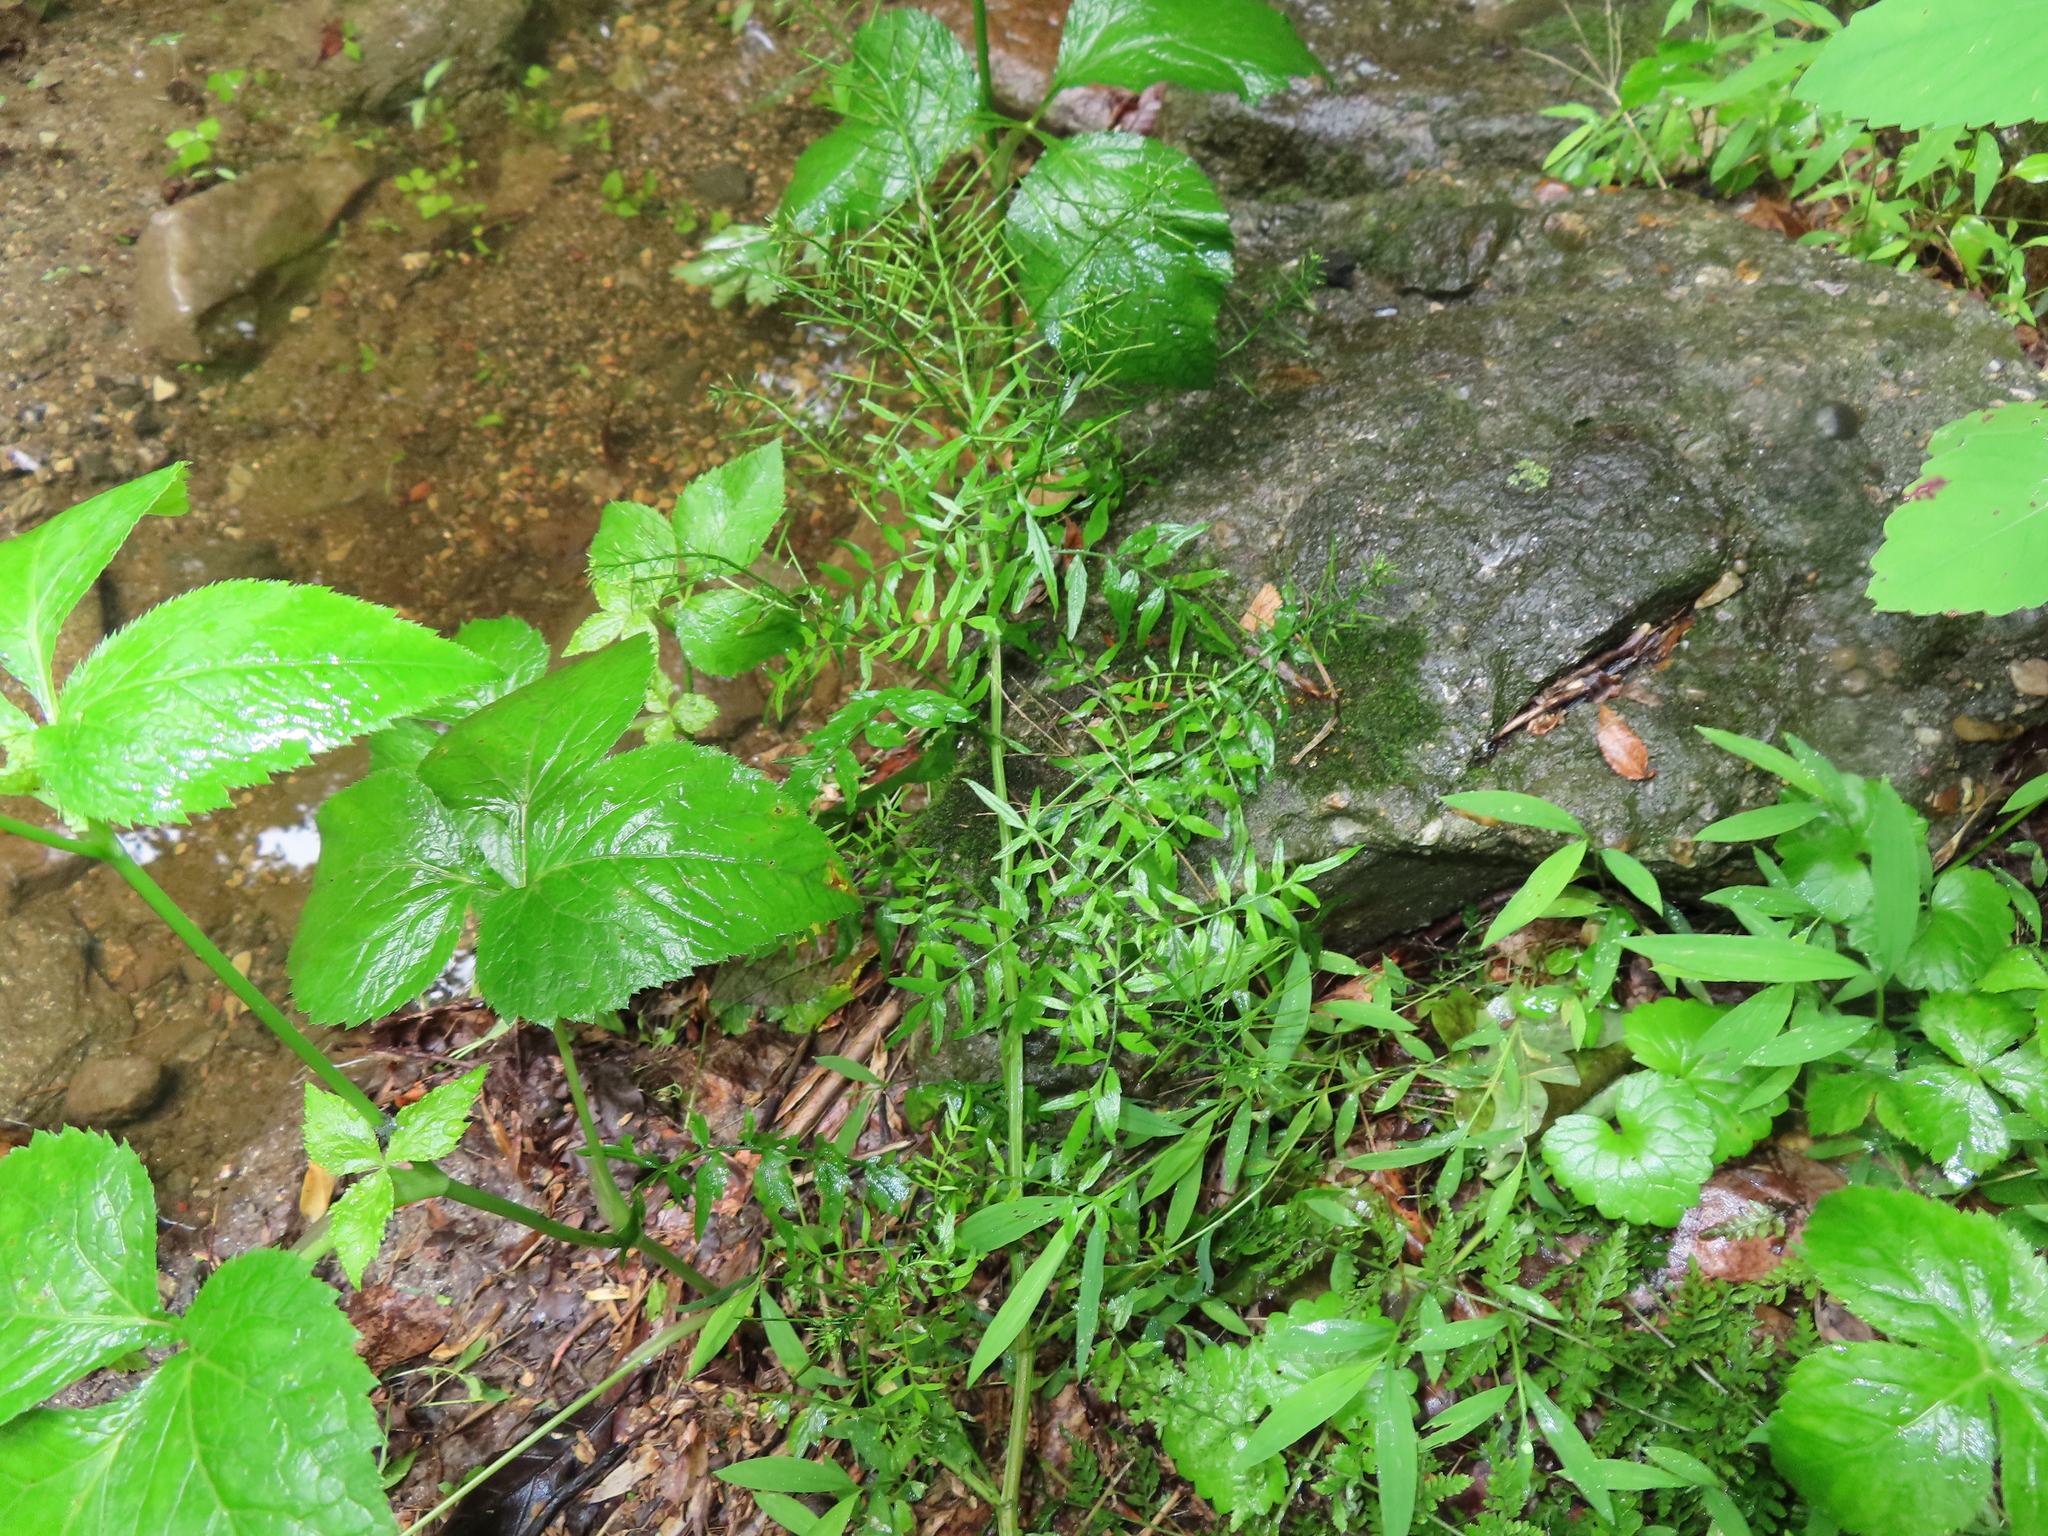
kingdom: Plantae
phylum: Tracheophyta
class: Magnoliopsida
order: Brassicales
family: Brassicaceae
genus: Cardamine
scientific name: Cardamine impatiens
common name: Narrow-leaved bitter-cress
